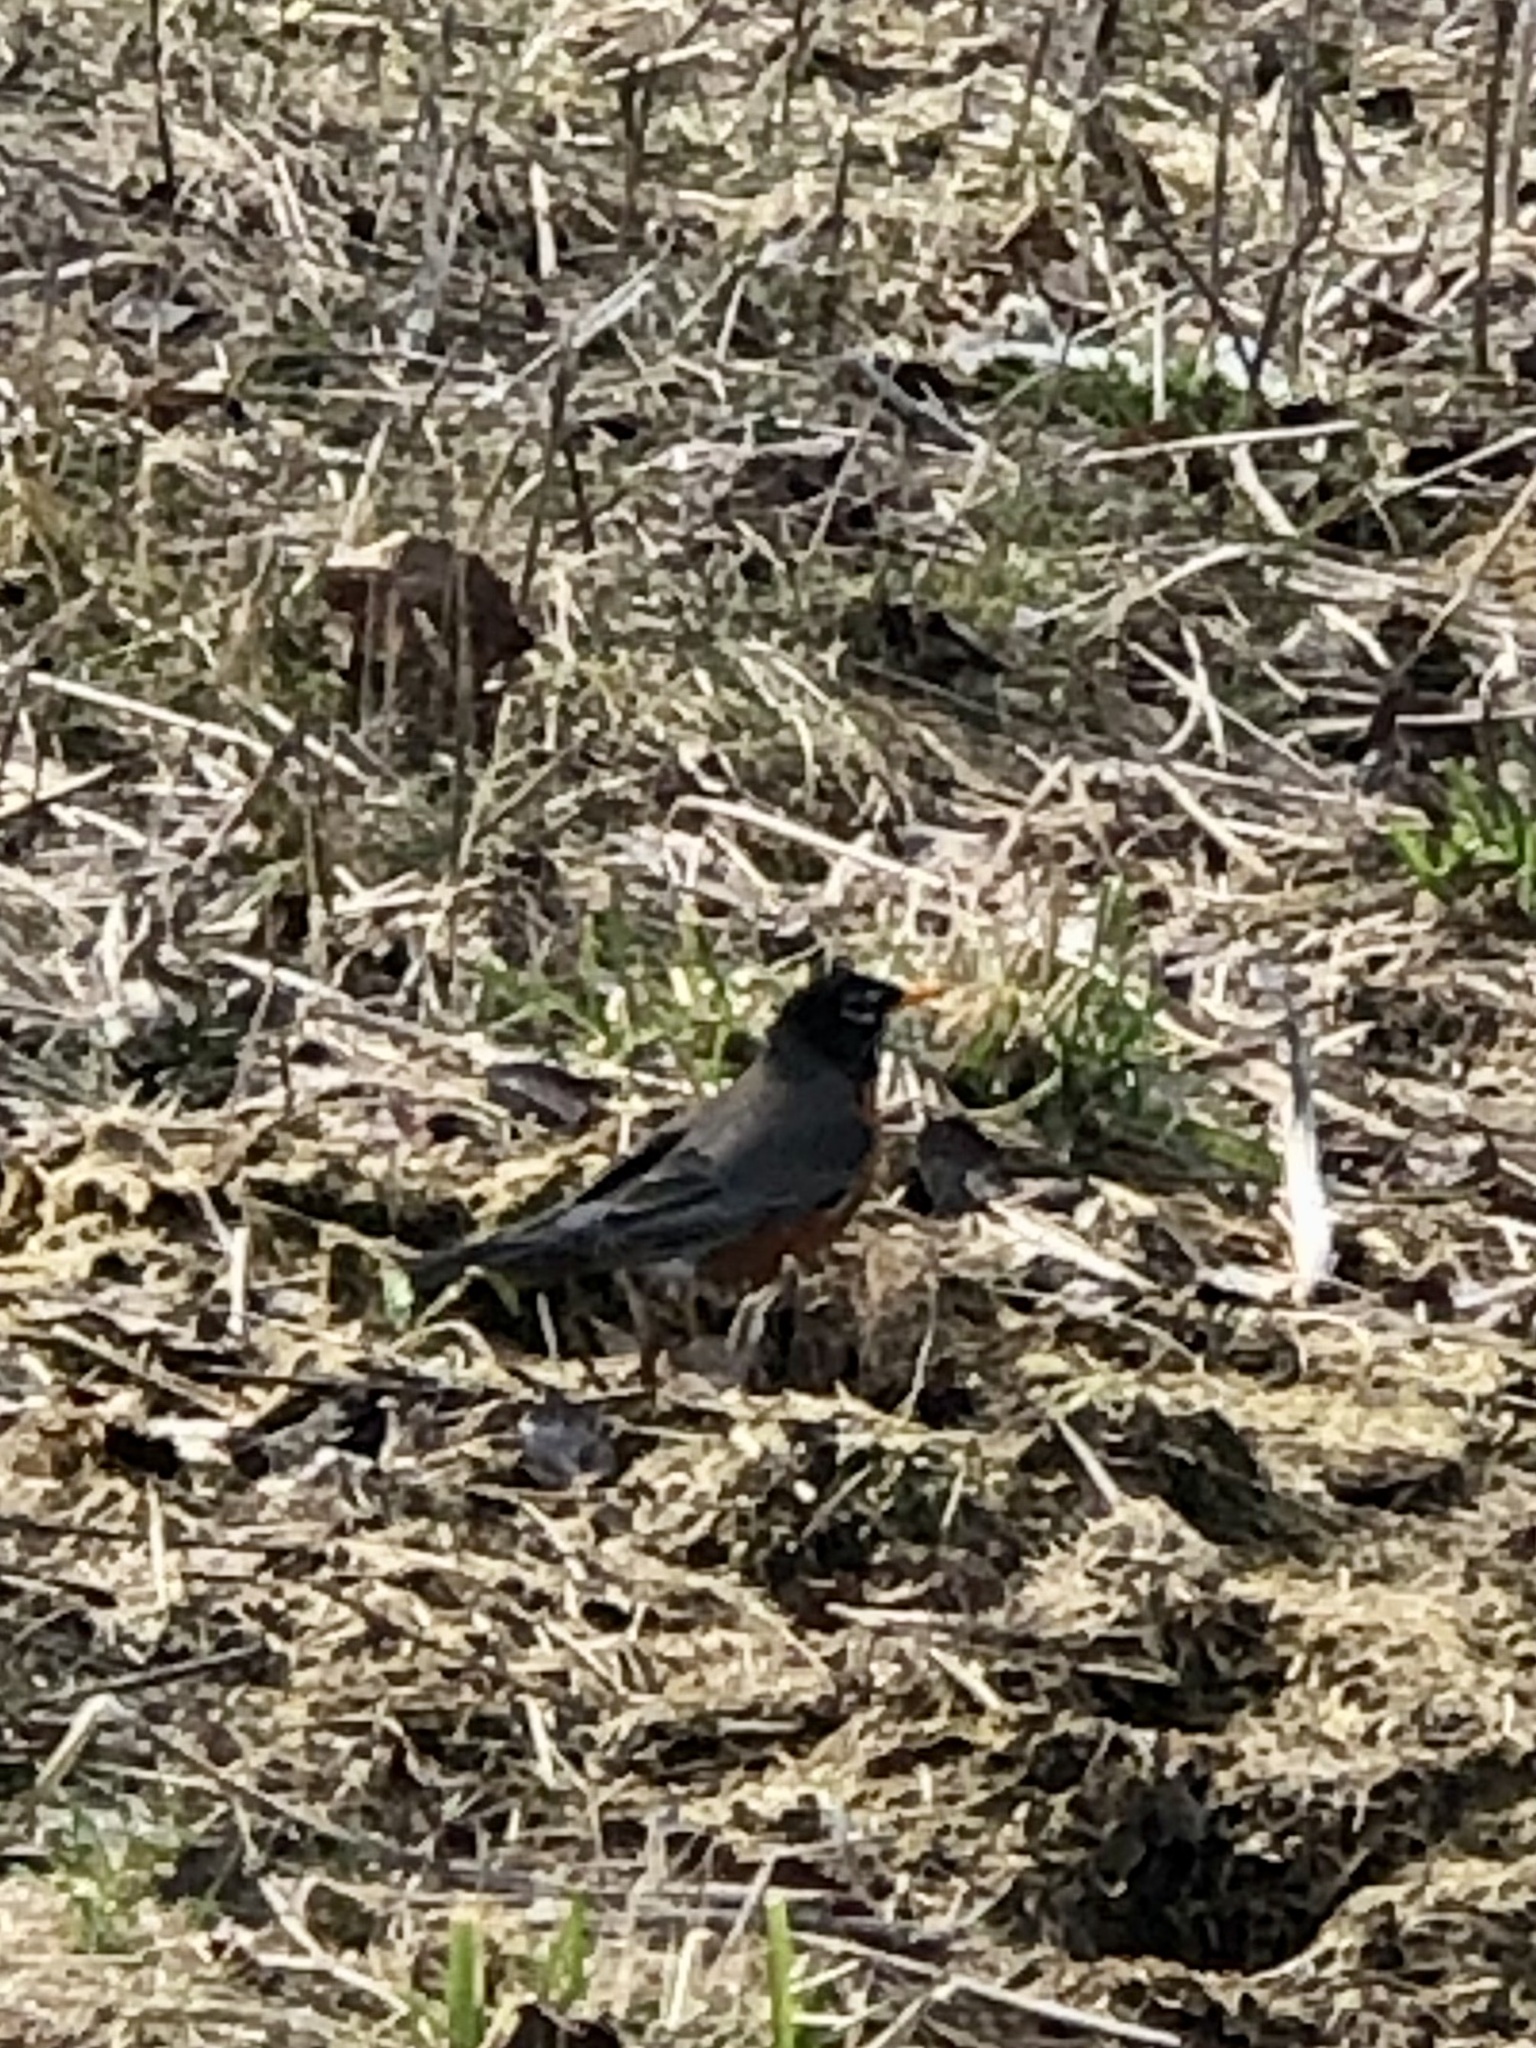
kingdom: Animalia
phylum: Chordata
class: Aves
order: Passeriformes
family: Turdidae
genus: Turdus
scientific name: Turdus migratorius
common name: American robin
